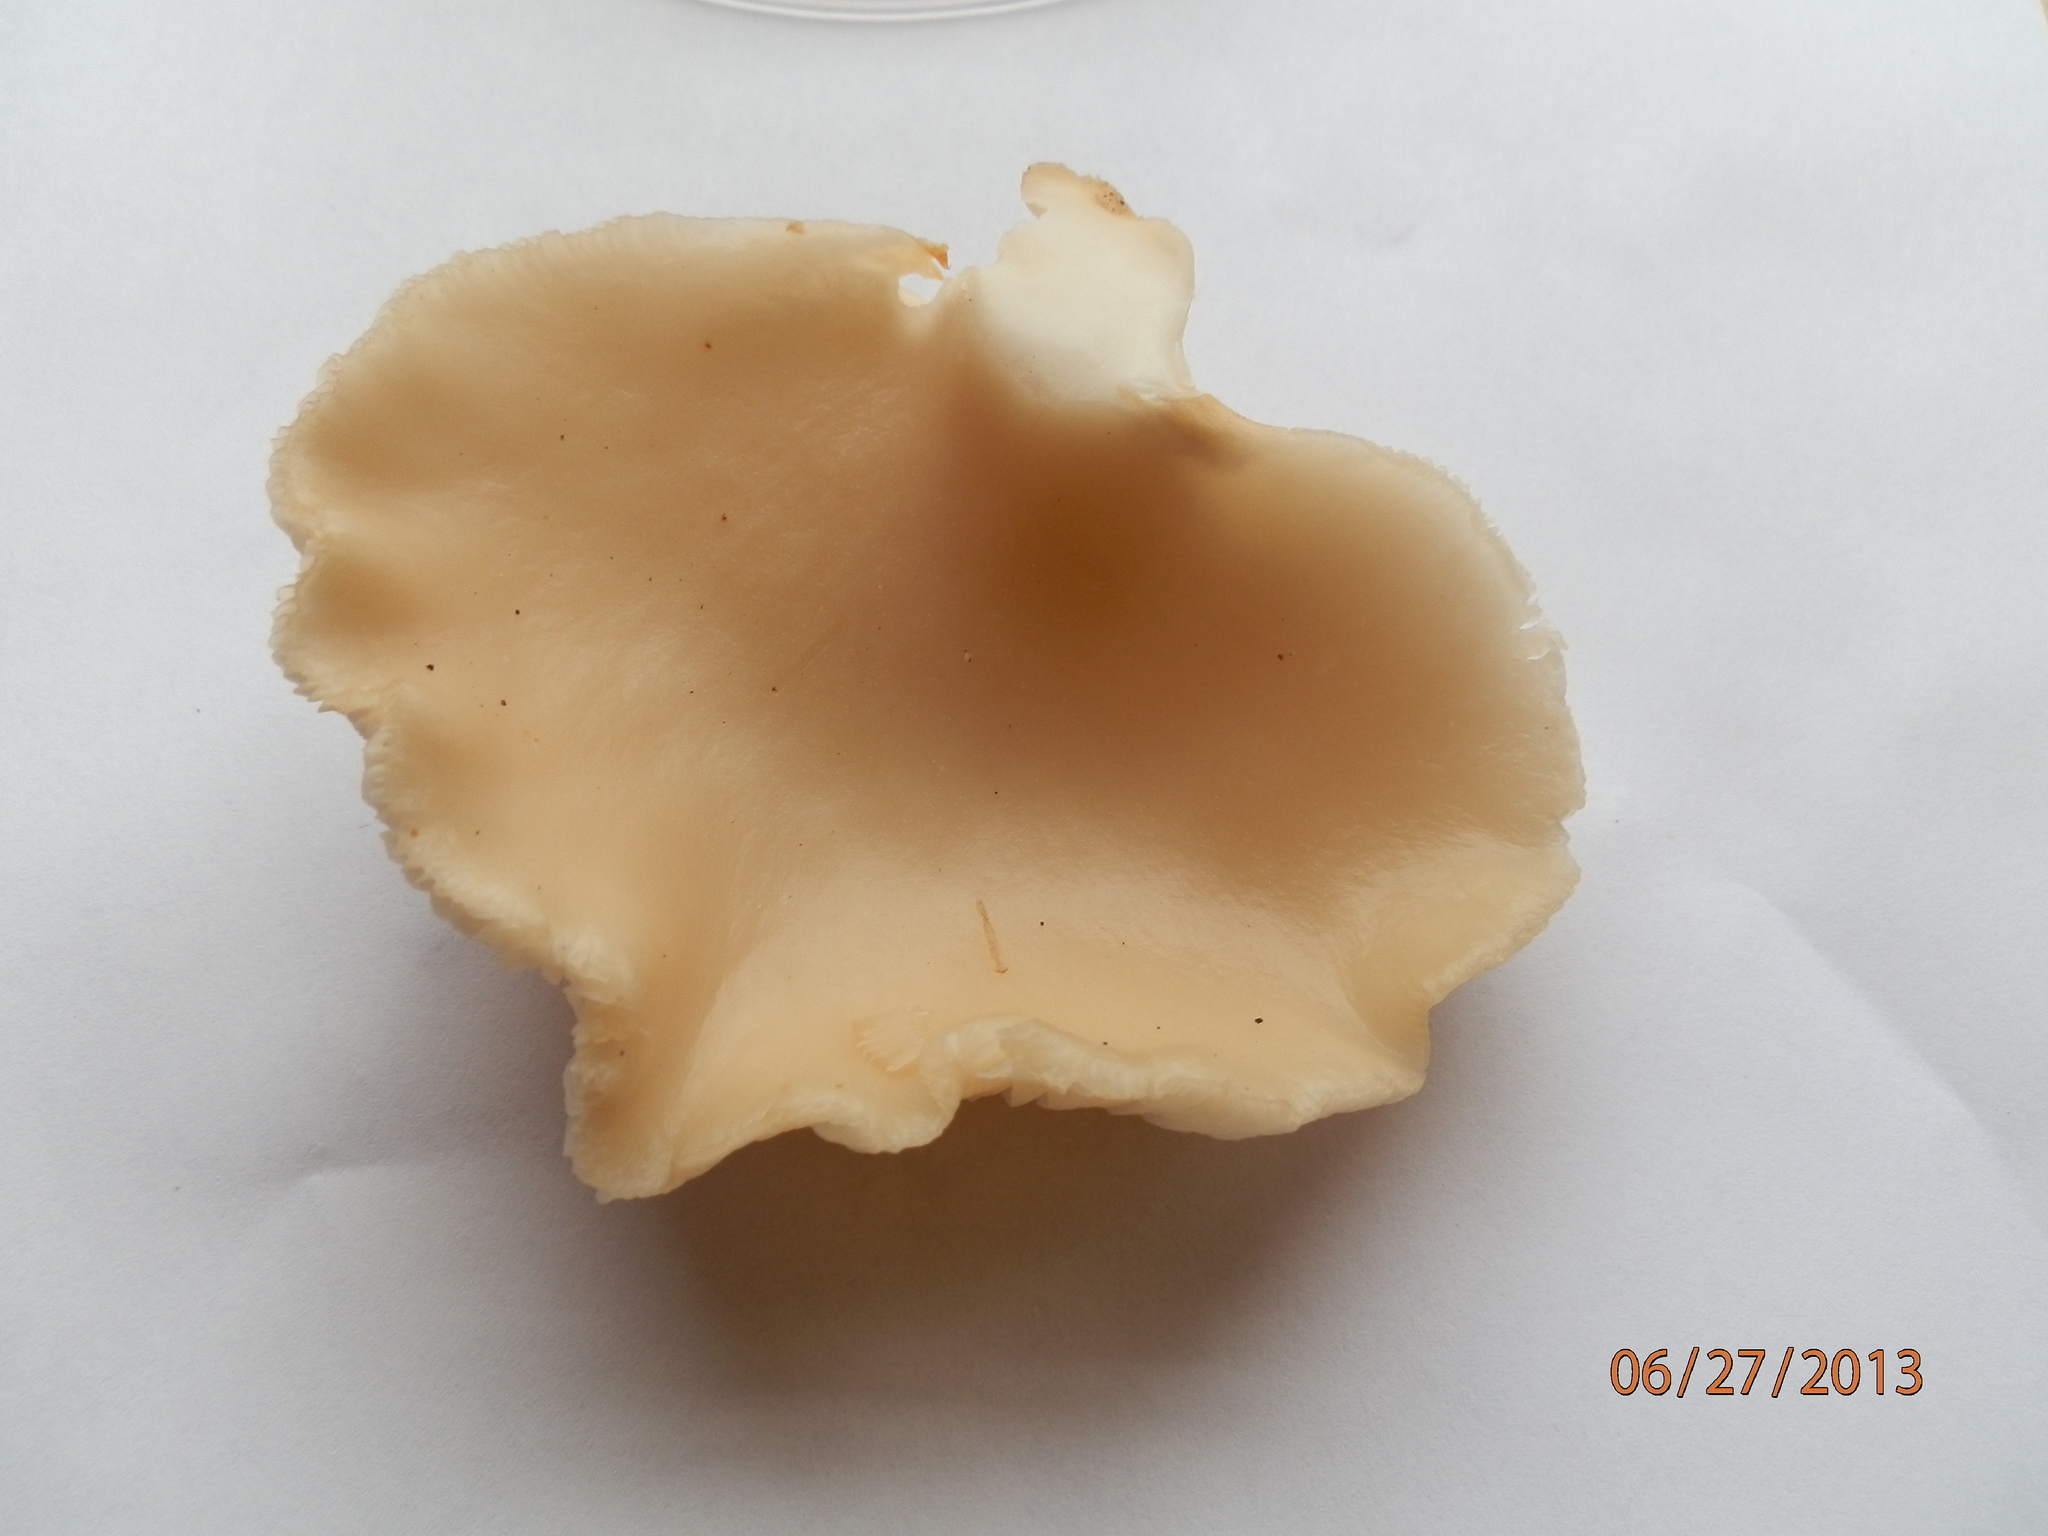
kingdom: Fungi
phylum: Basidiomycota
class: Agaricomycetes
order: Agaricales
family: Pleurotaceae
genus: Pleurotus
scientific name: Pleurotus populinus
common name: Aspen oyster mushroom
